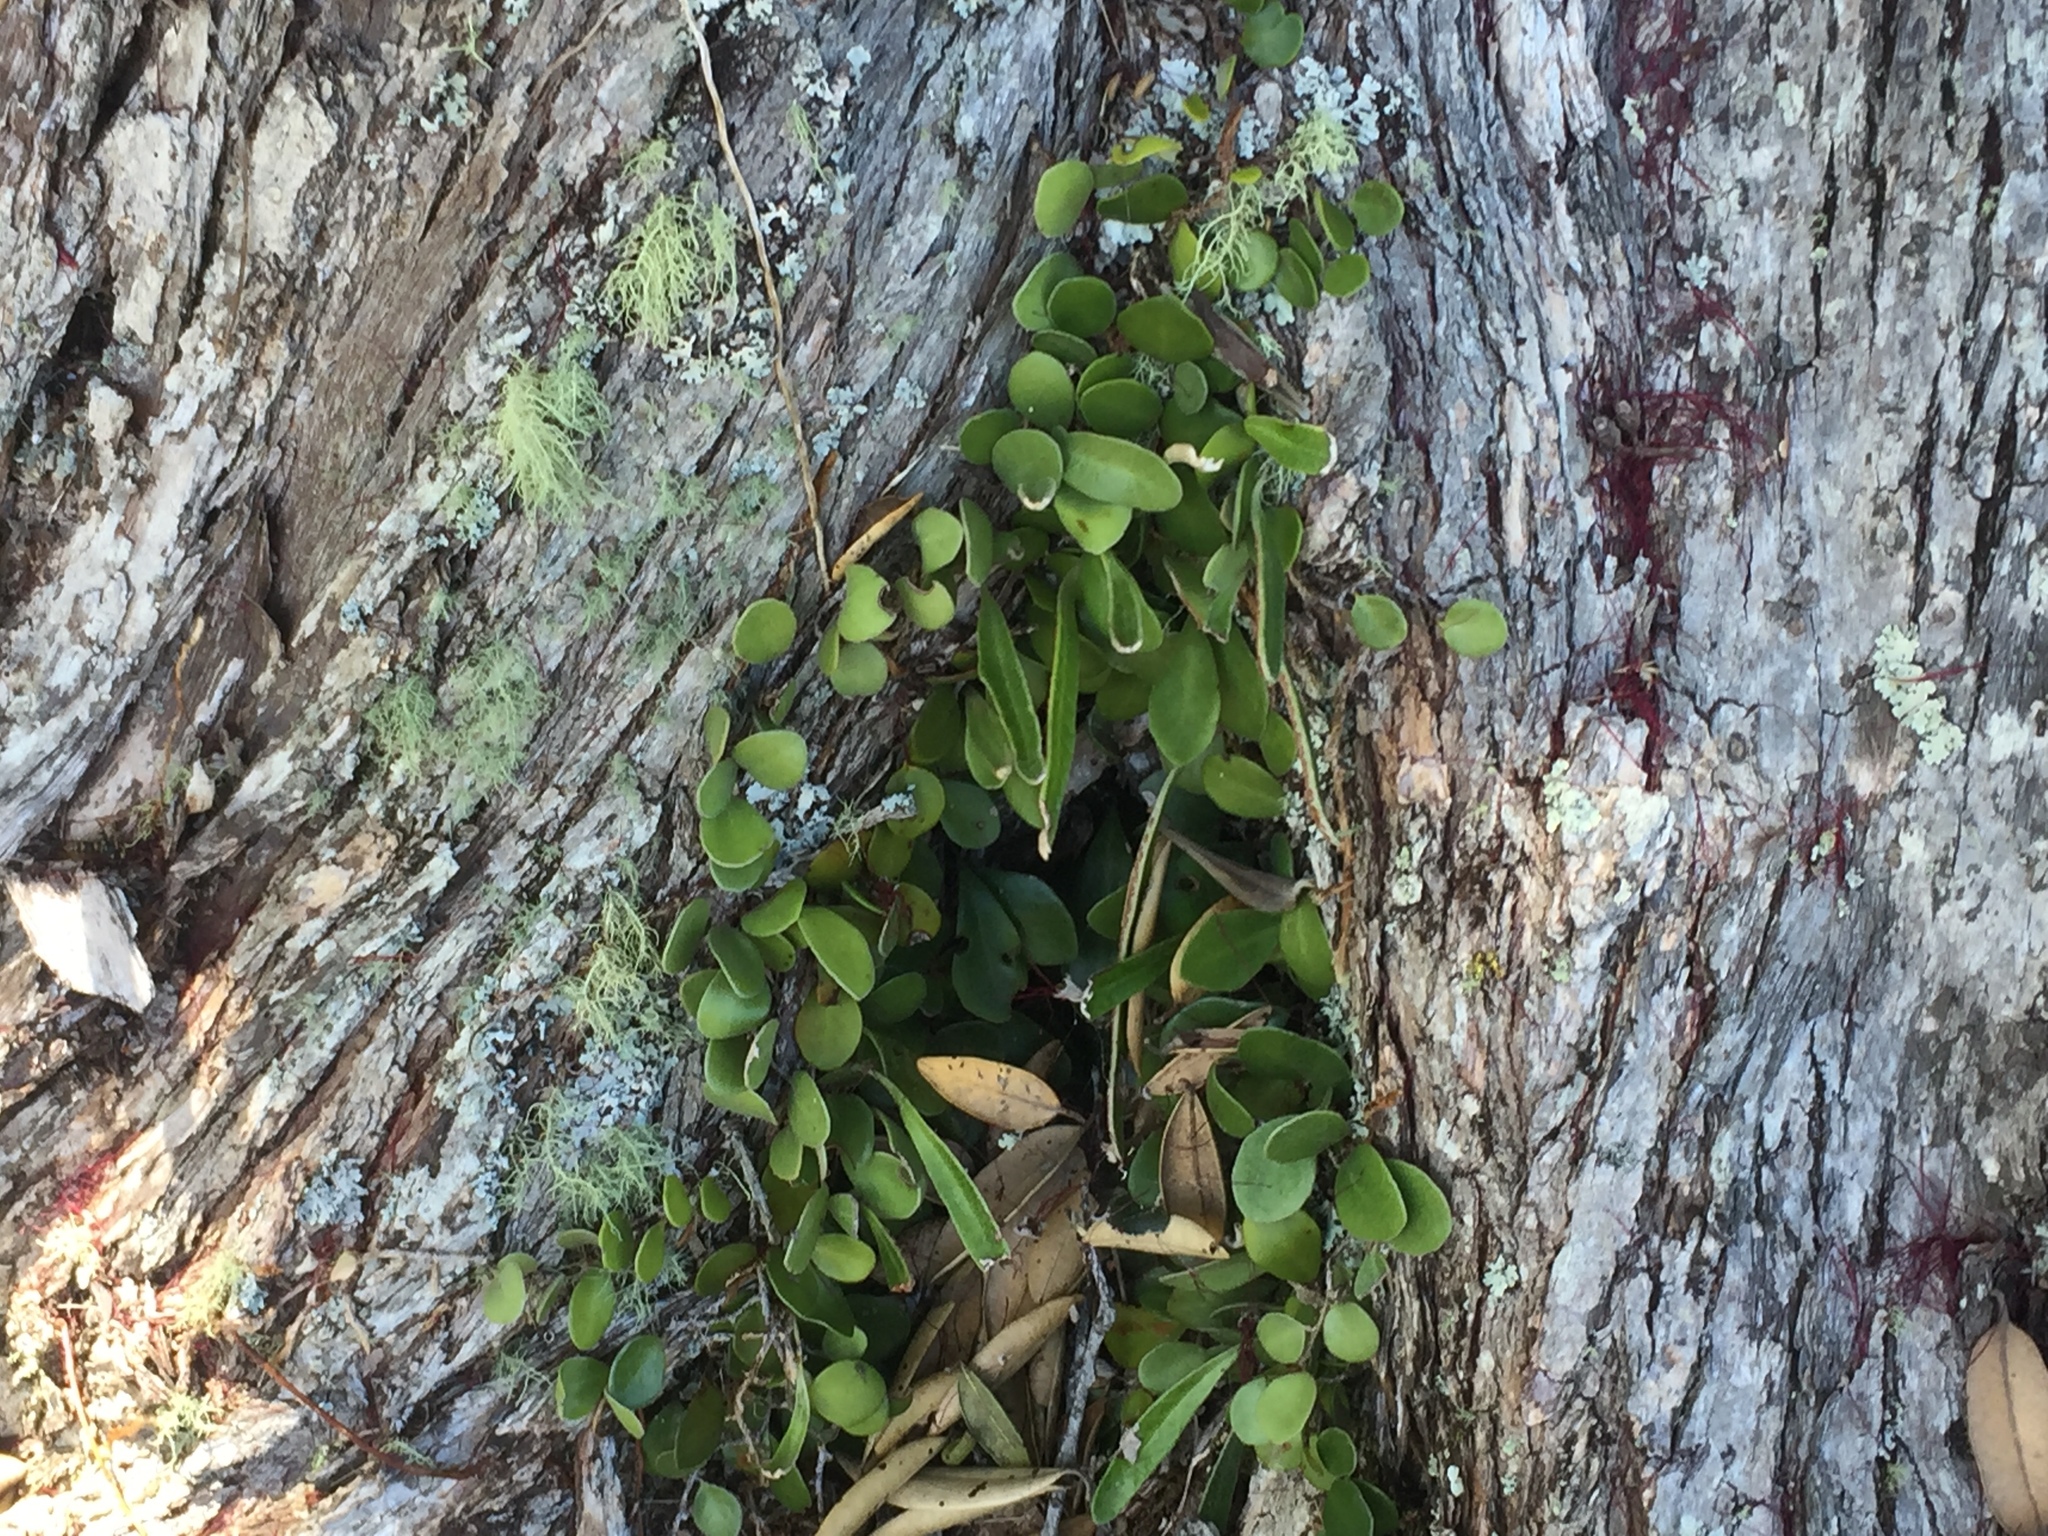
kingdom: Plantae
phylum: Tracheophyta
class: Polypodiopsida
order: Polypodiales
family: Polypodiaceae
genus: Pyrrosia
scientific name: Pyrrosia eleagnifolia
